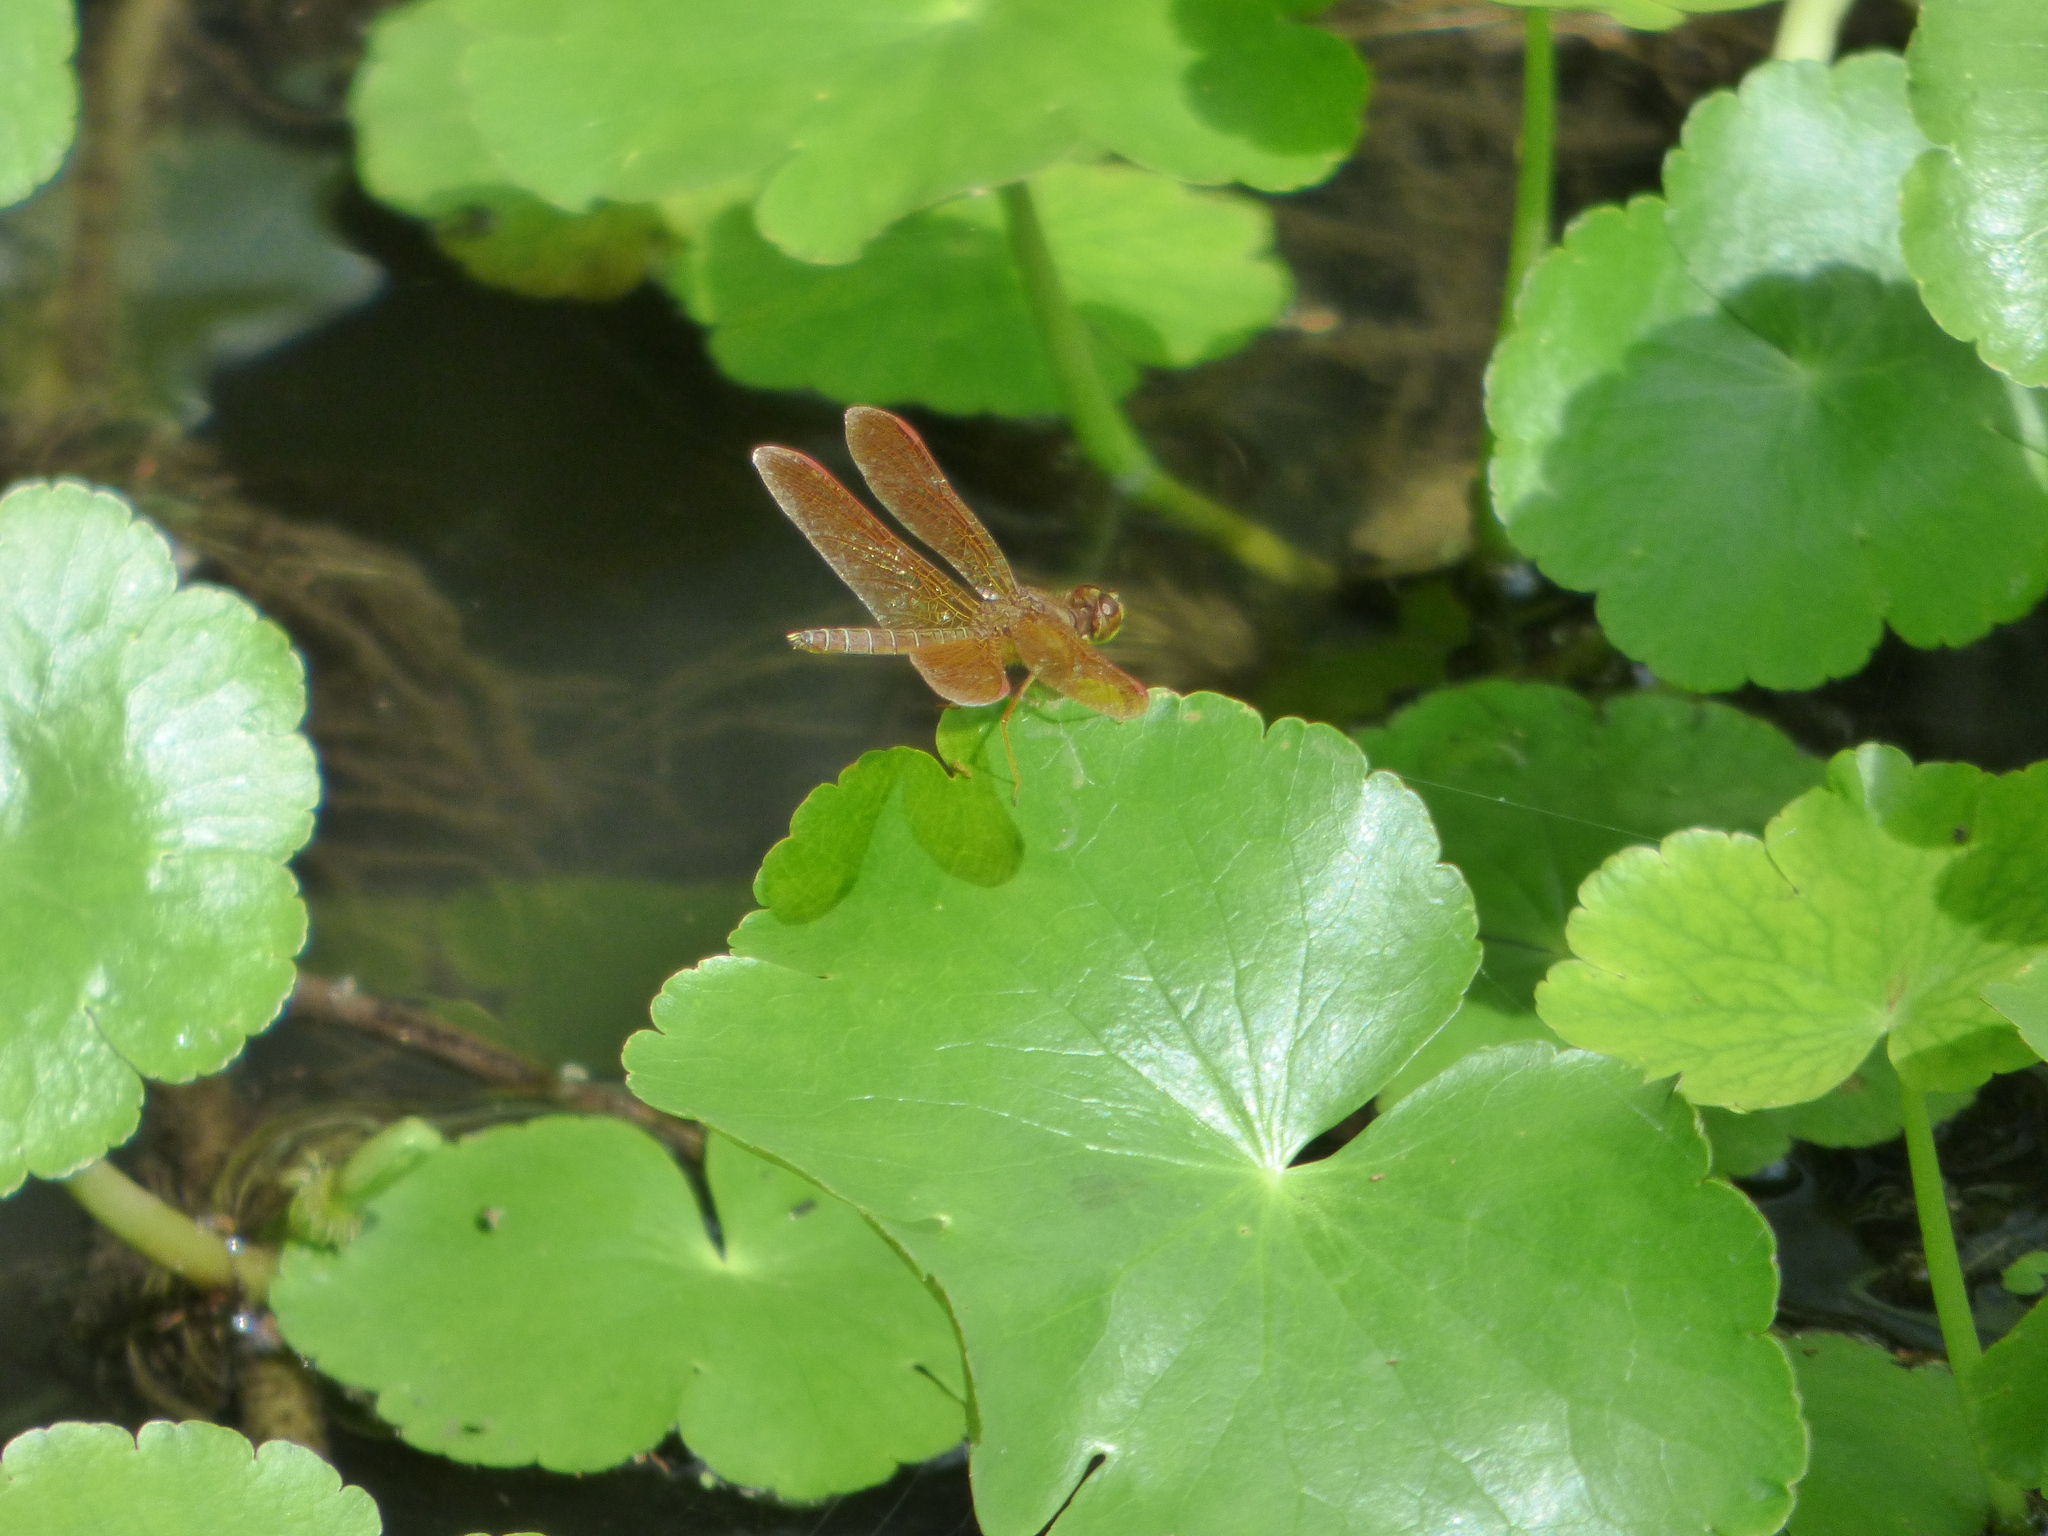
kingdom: Animalia
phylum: Arthropoda
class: Insecta
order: Odonata
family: Libellulidae
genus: Perithemis
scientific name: Perithemis tenera
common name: Eastern amberwing
